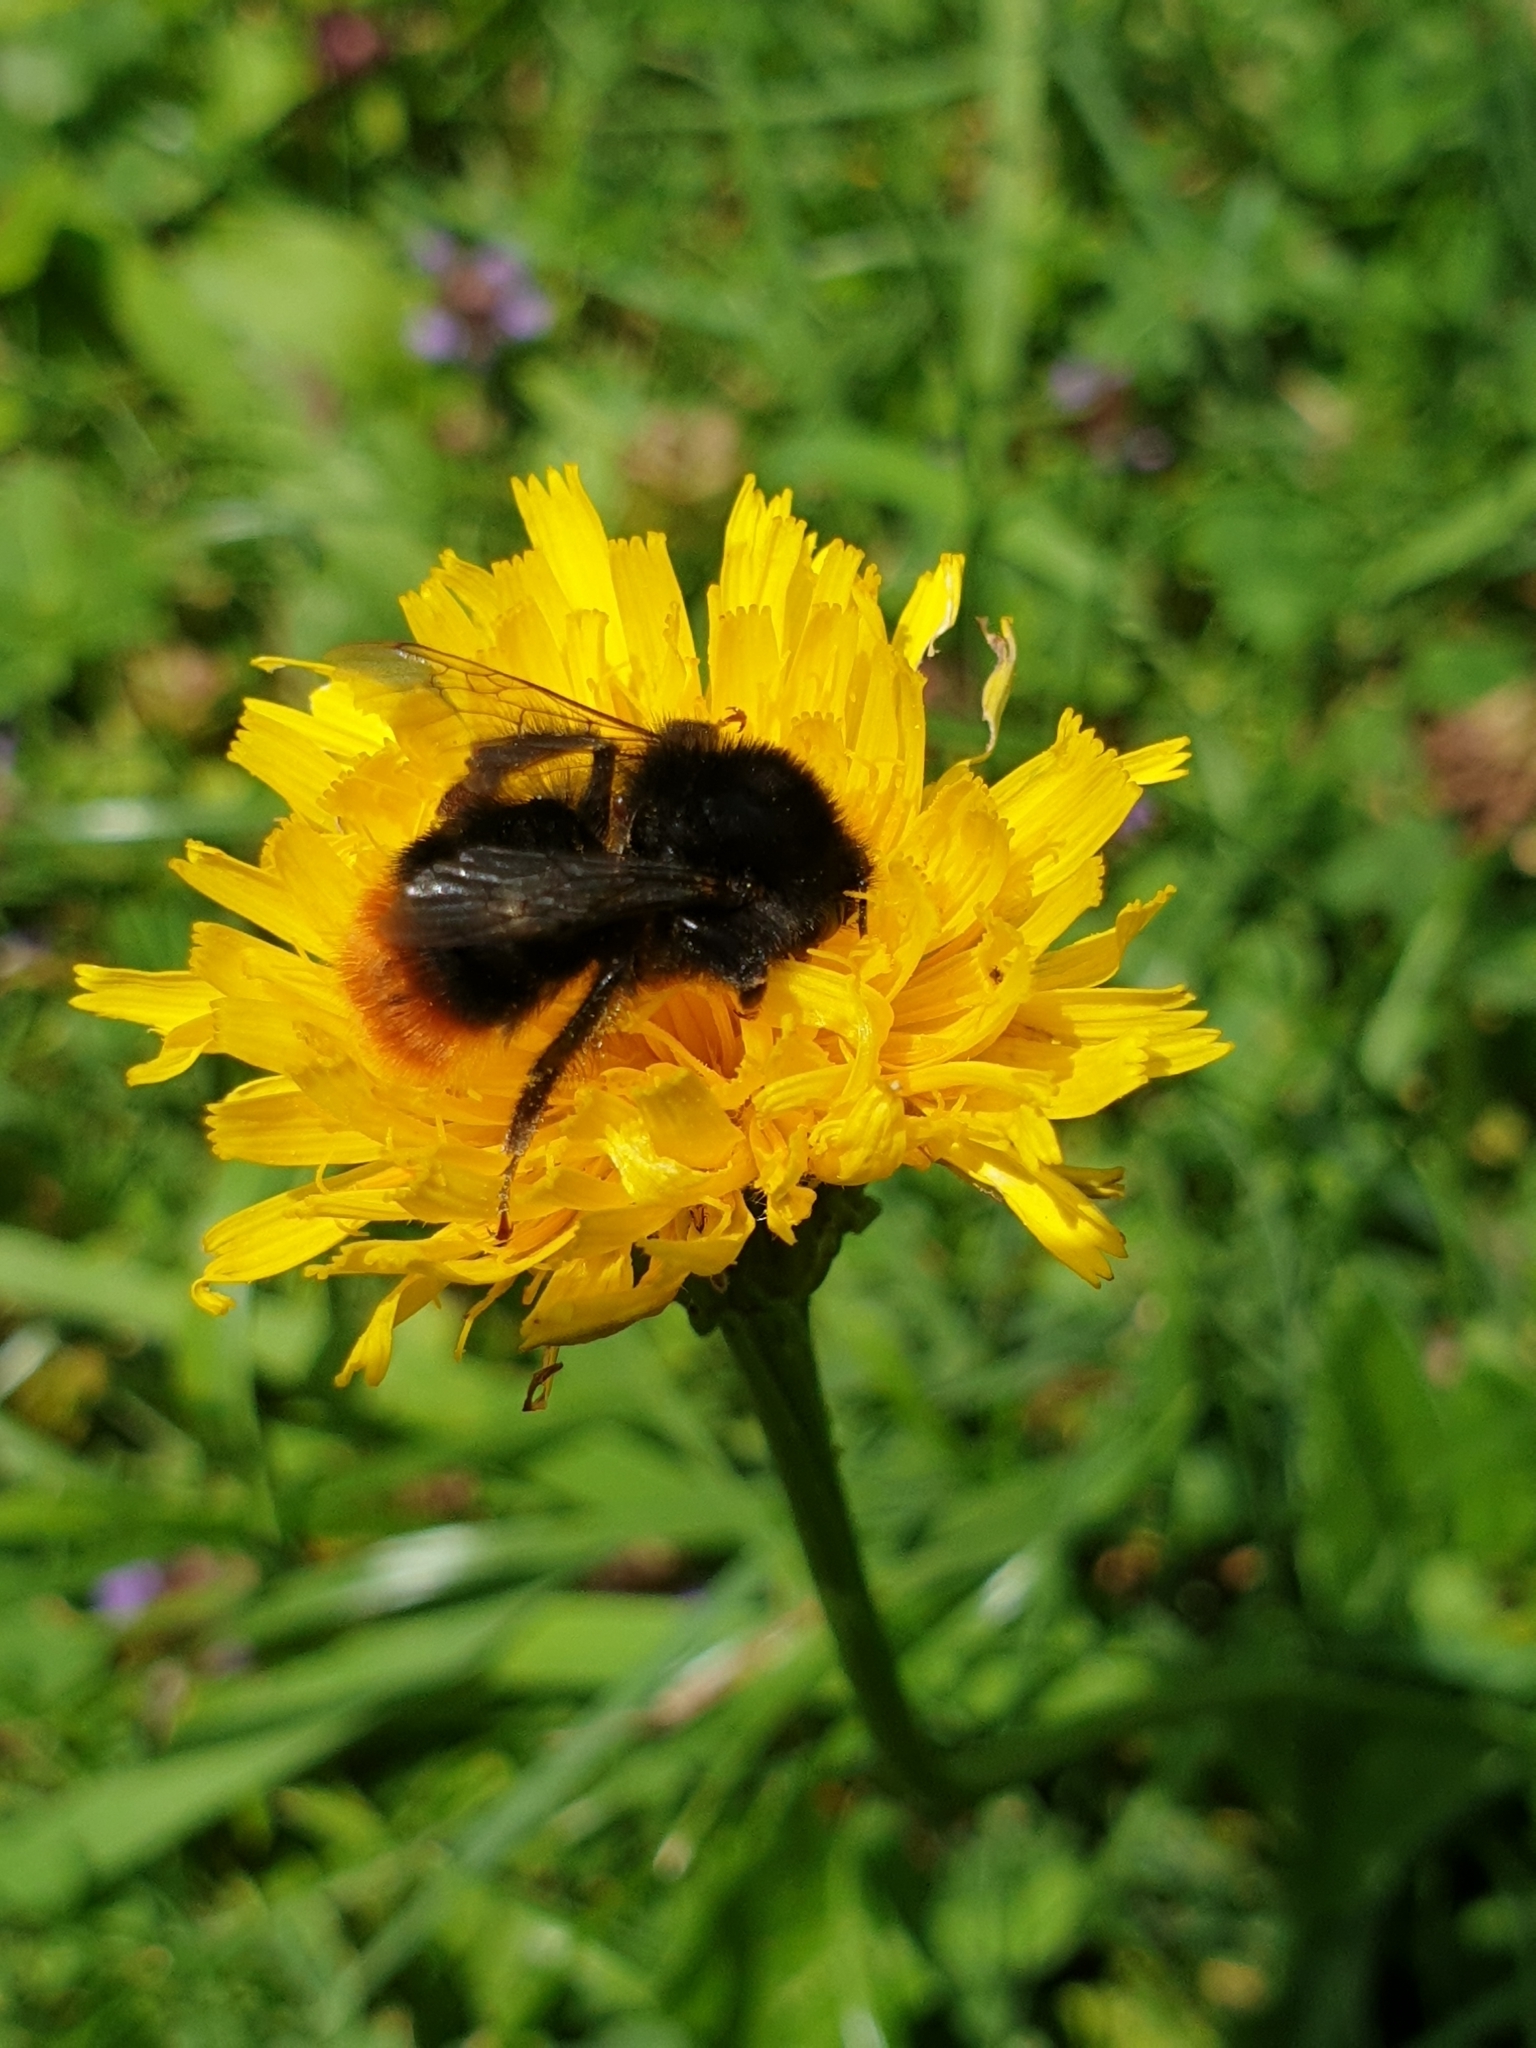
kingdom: Animalia
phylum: Arthropoda
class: Insecta
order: Hymenoptera
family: Apidae
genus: Bombus
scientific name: Bombus lapidarius
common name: Large red-tailed humble-bee
